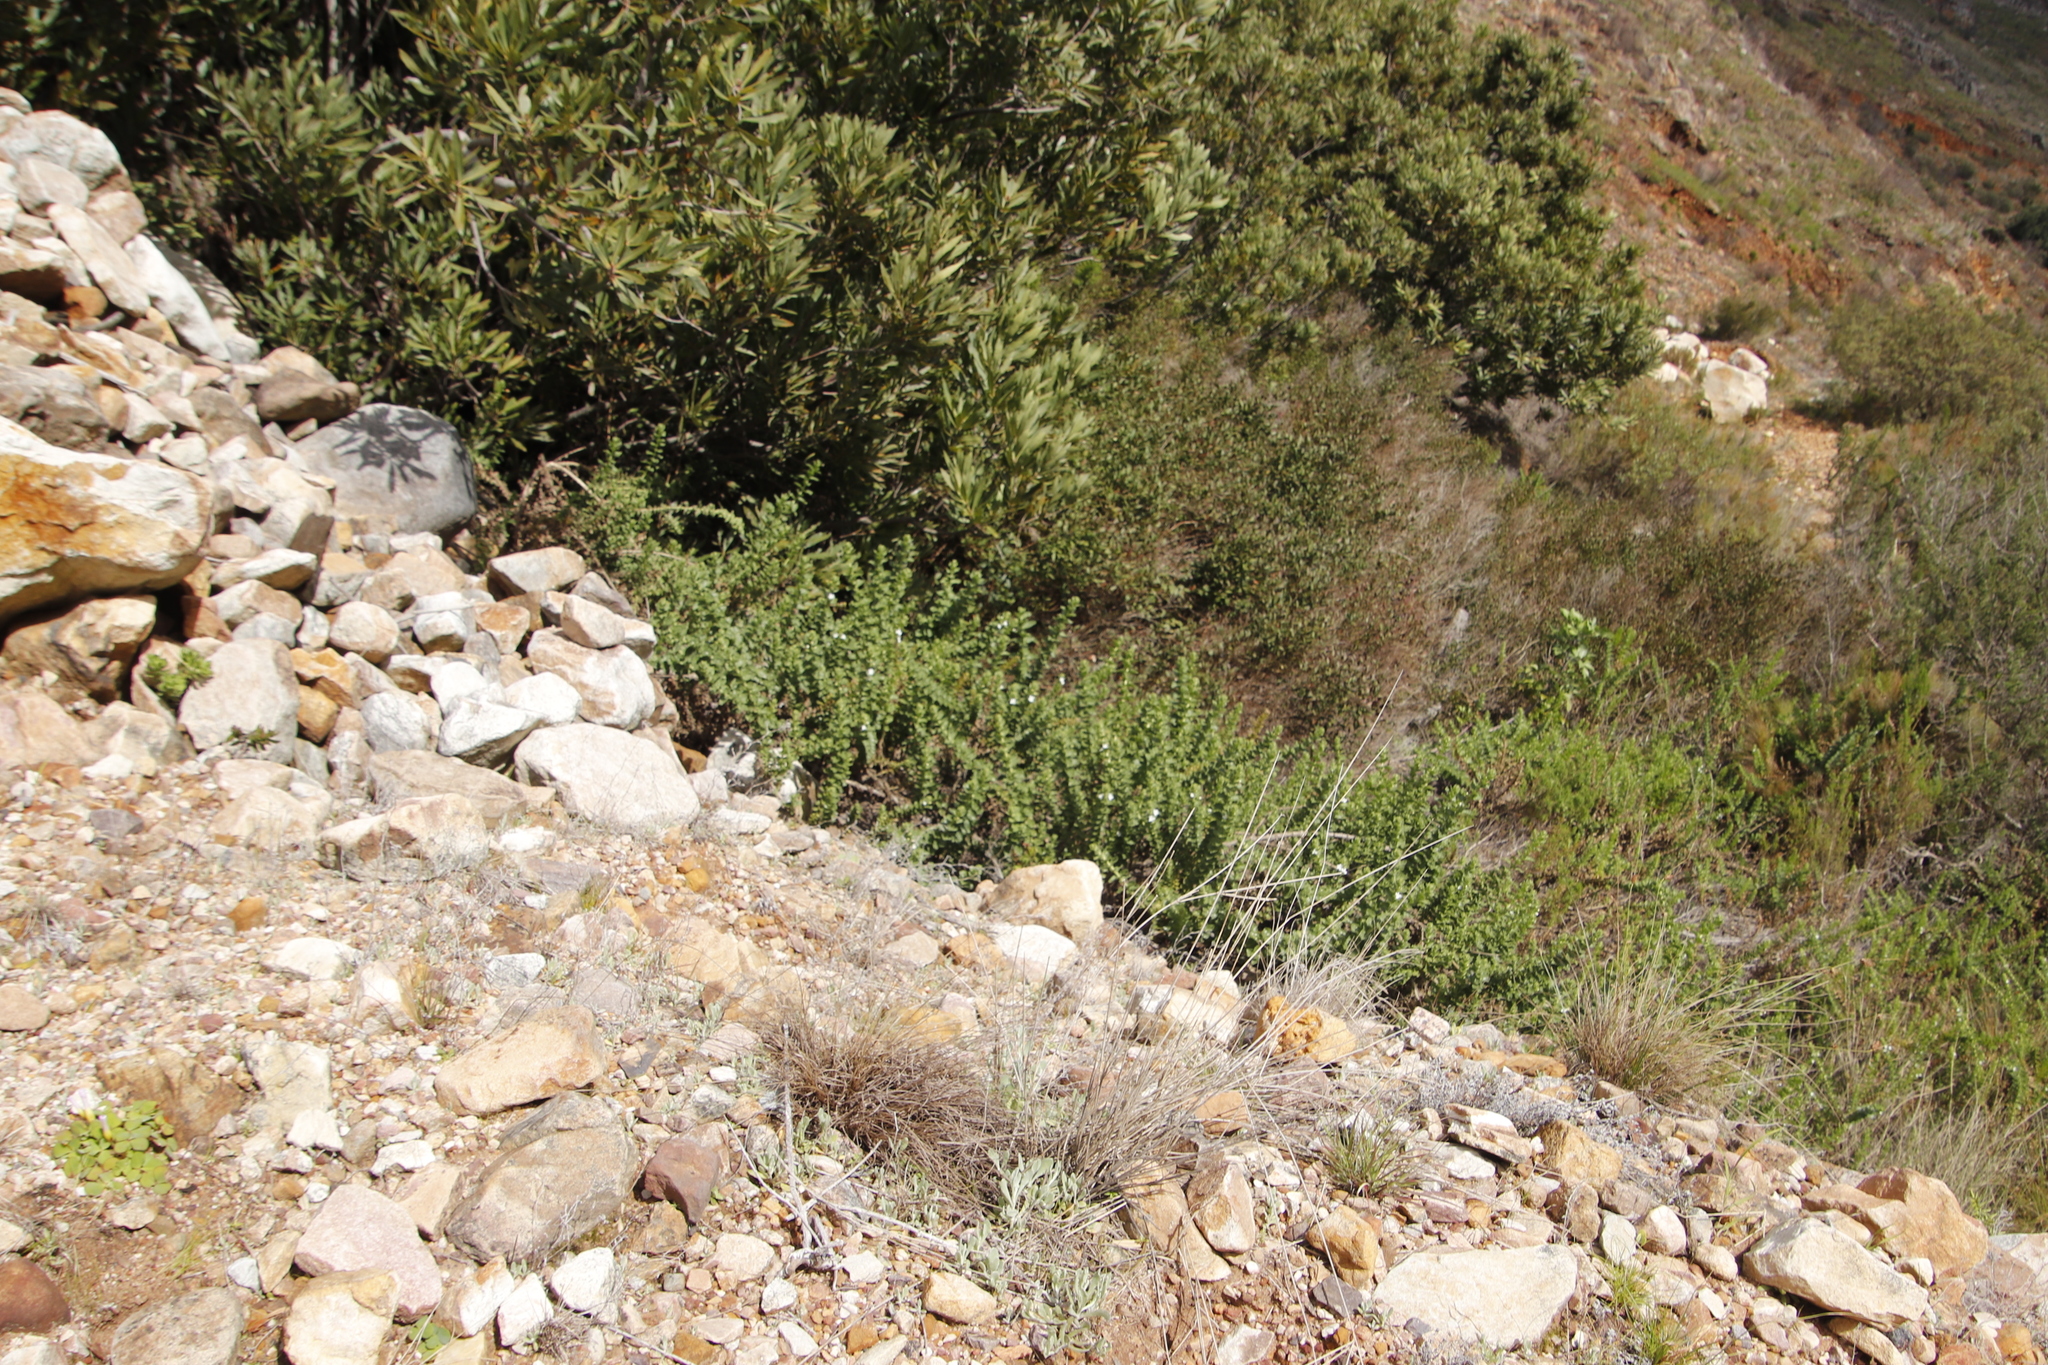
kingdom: Plantae
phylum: Tracheophyta
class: Magnoliopsida
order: Lamiales
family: Scrophulariaceae
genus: Oftia
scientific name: Oftia africana
